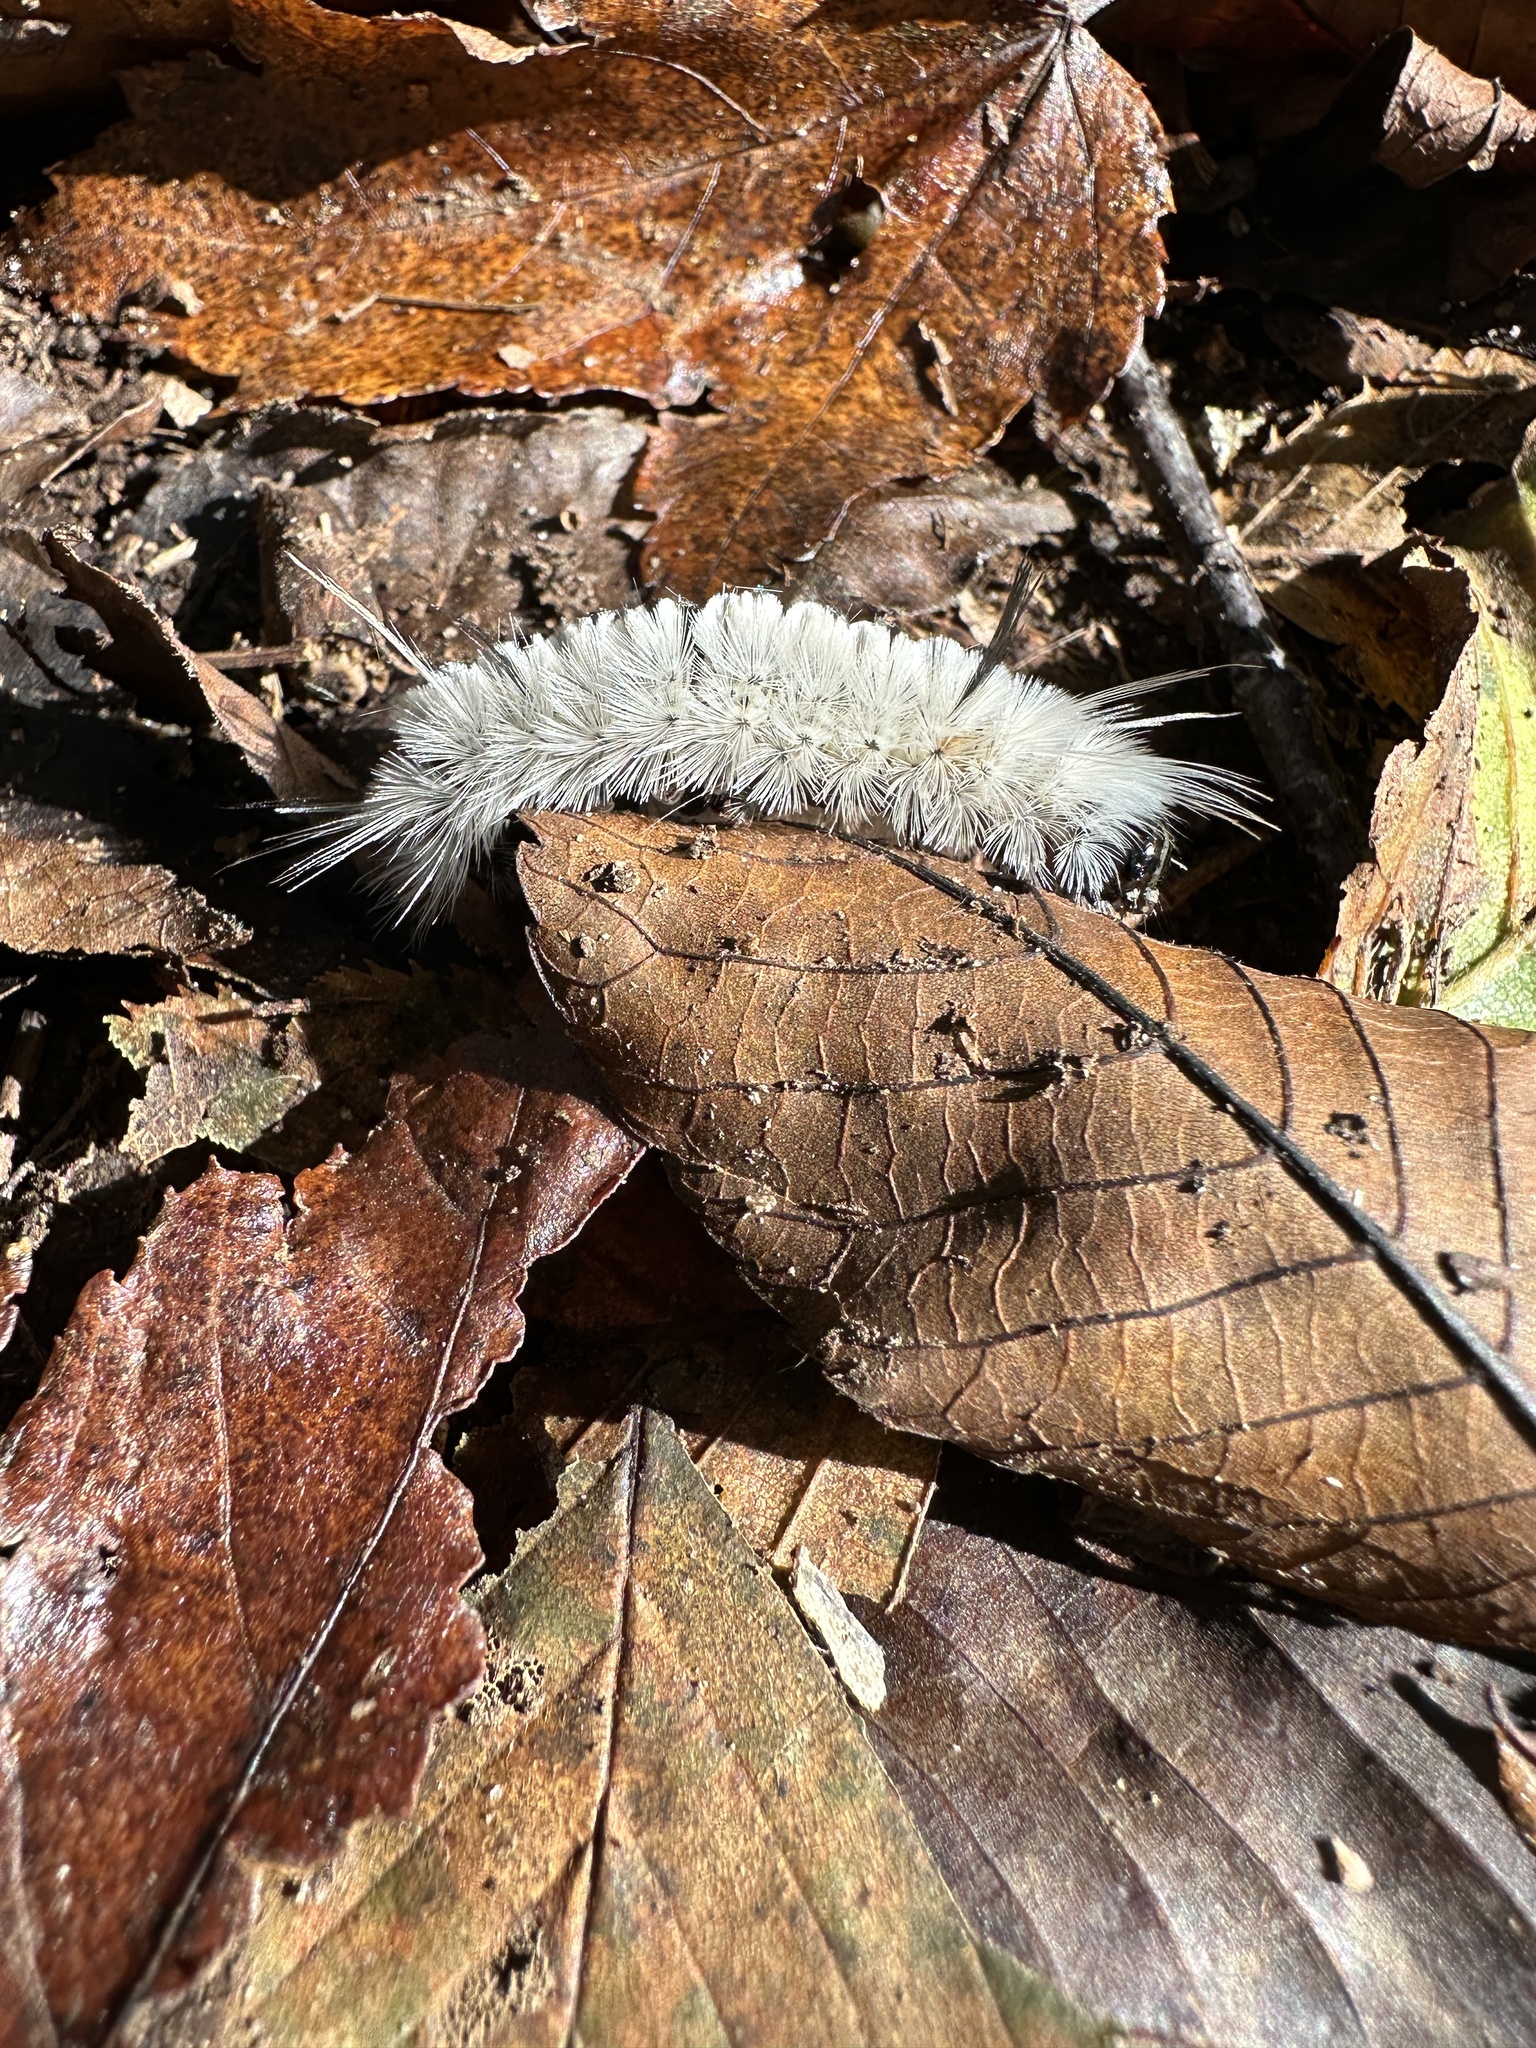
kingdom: Animalia
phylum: Arthropoda
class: Insecta
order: Lepidoptera
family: Erebidae
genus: Lophocampa
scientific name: Lophocampa caryae
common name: Hickory tussock moth
